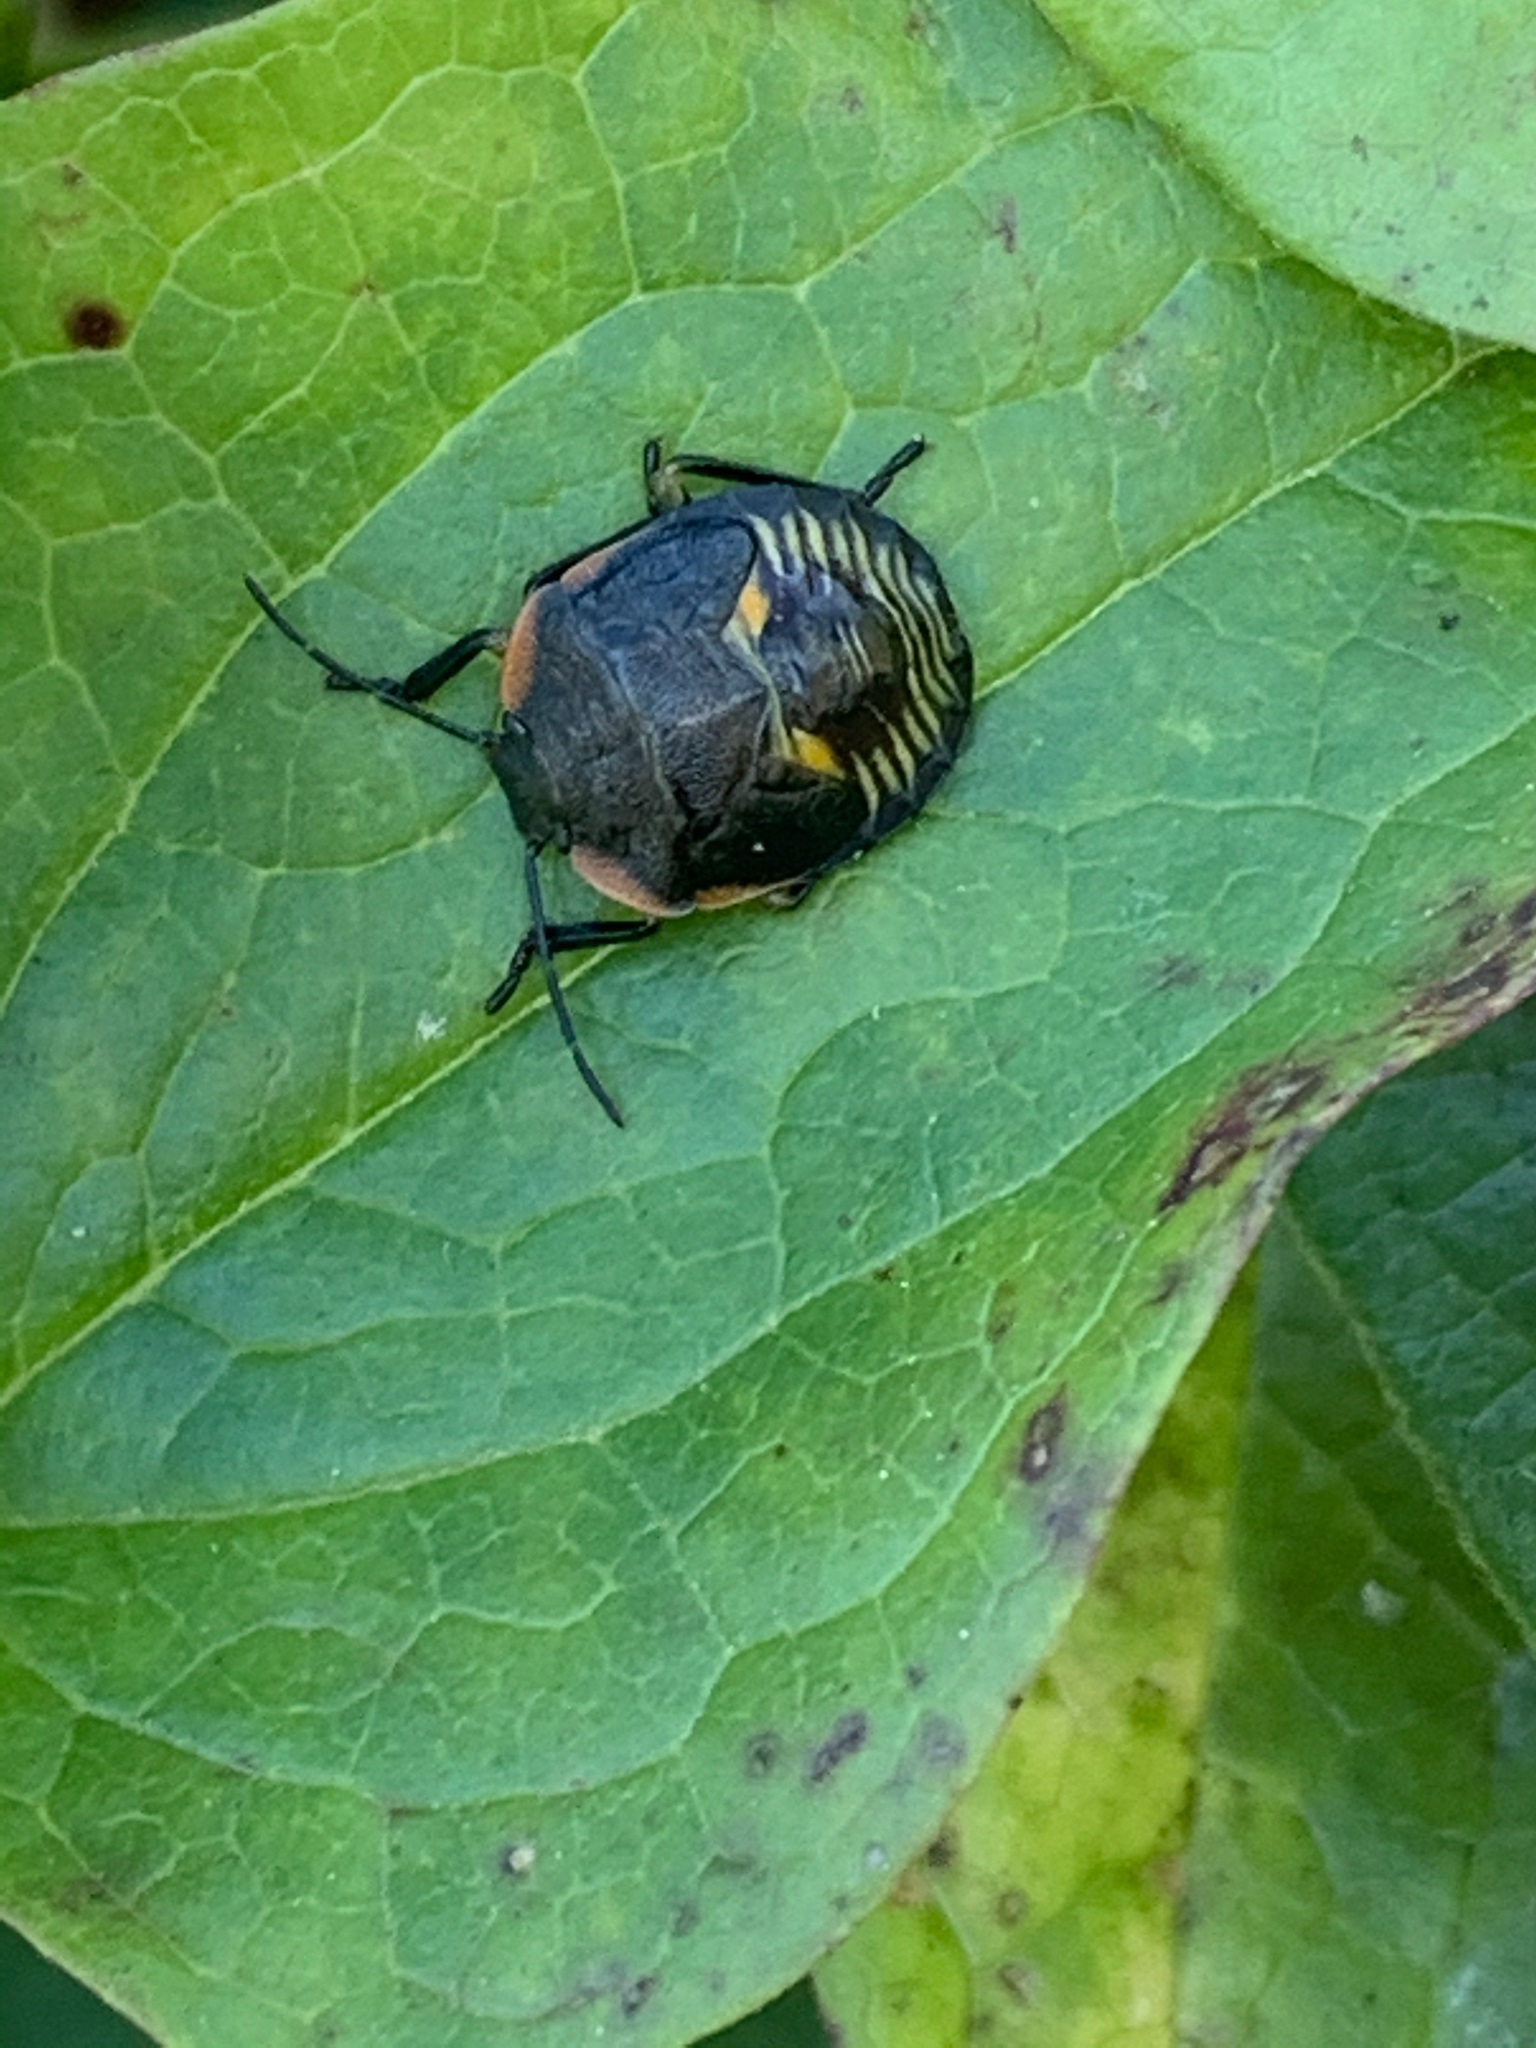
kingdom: Animalia
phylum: Arthropoda
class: Insecta
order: Hemiptera
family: Pentatomidae
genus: Chinavia
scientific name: Chinavia hilaris
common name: Green stink bug
